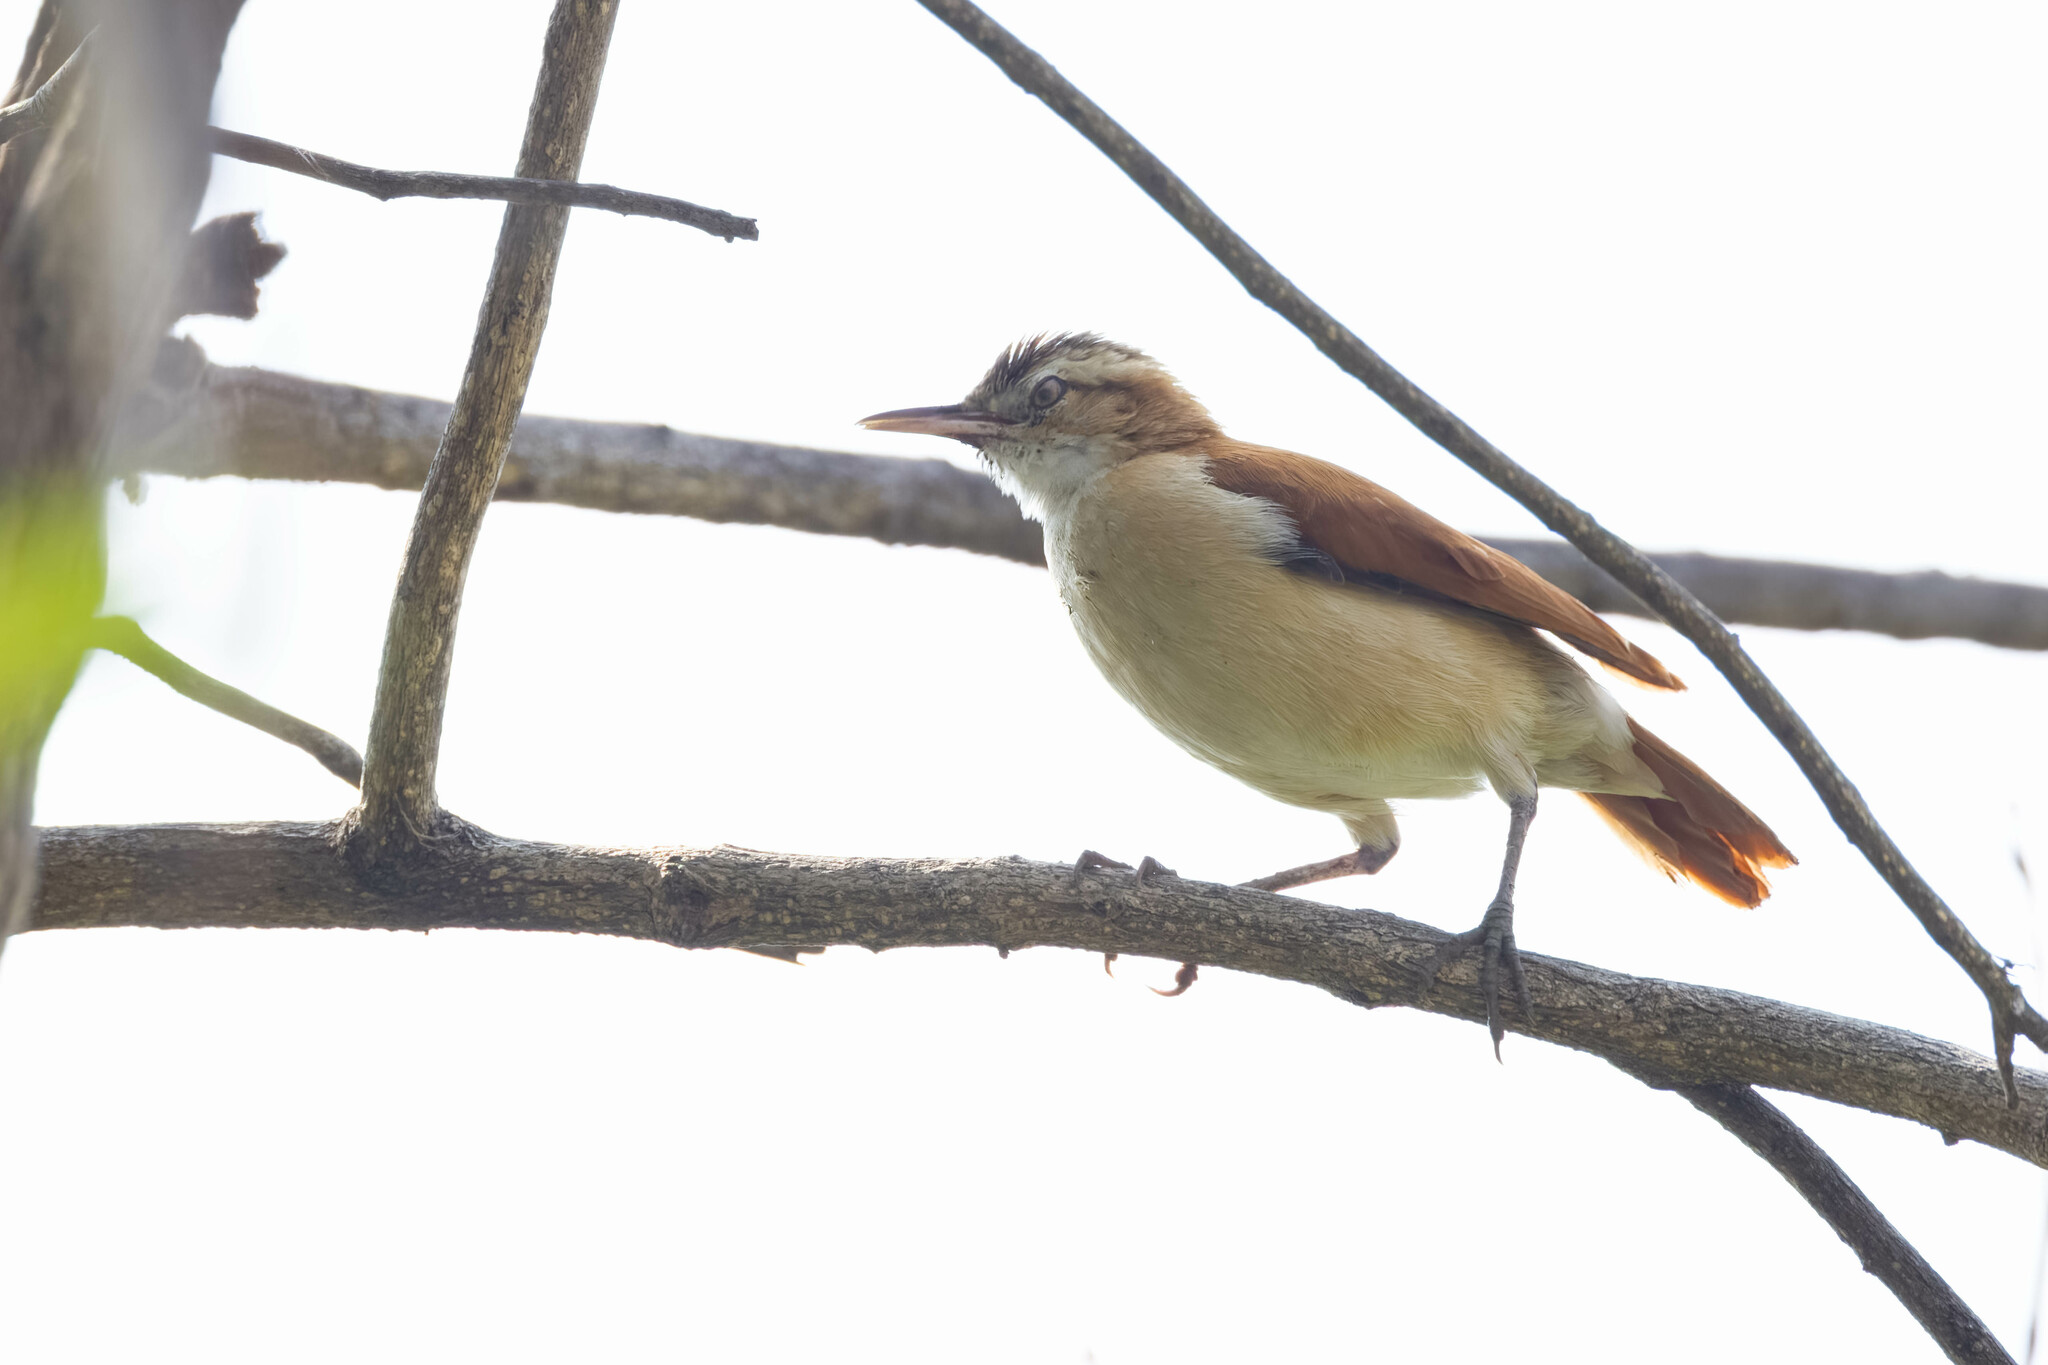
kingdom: Animalia
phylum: Chordata
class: Aves
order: Passeriformes
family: Furnariidae
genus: Furnarius
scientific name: Furnarius leucopus
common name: Pale-legged hornero
